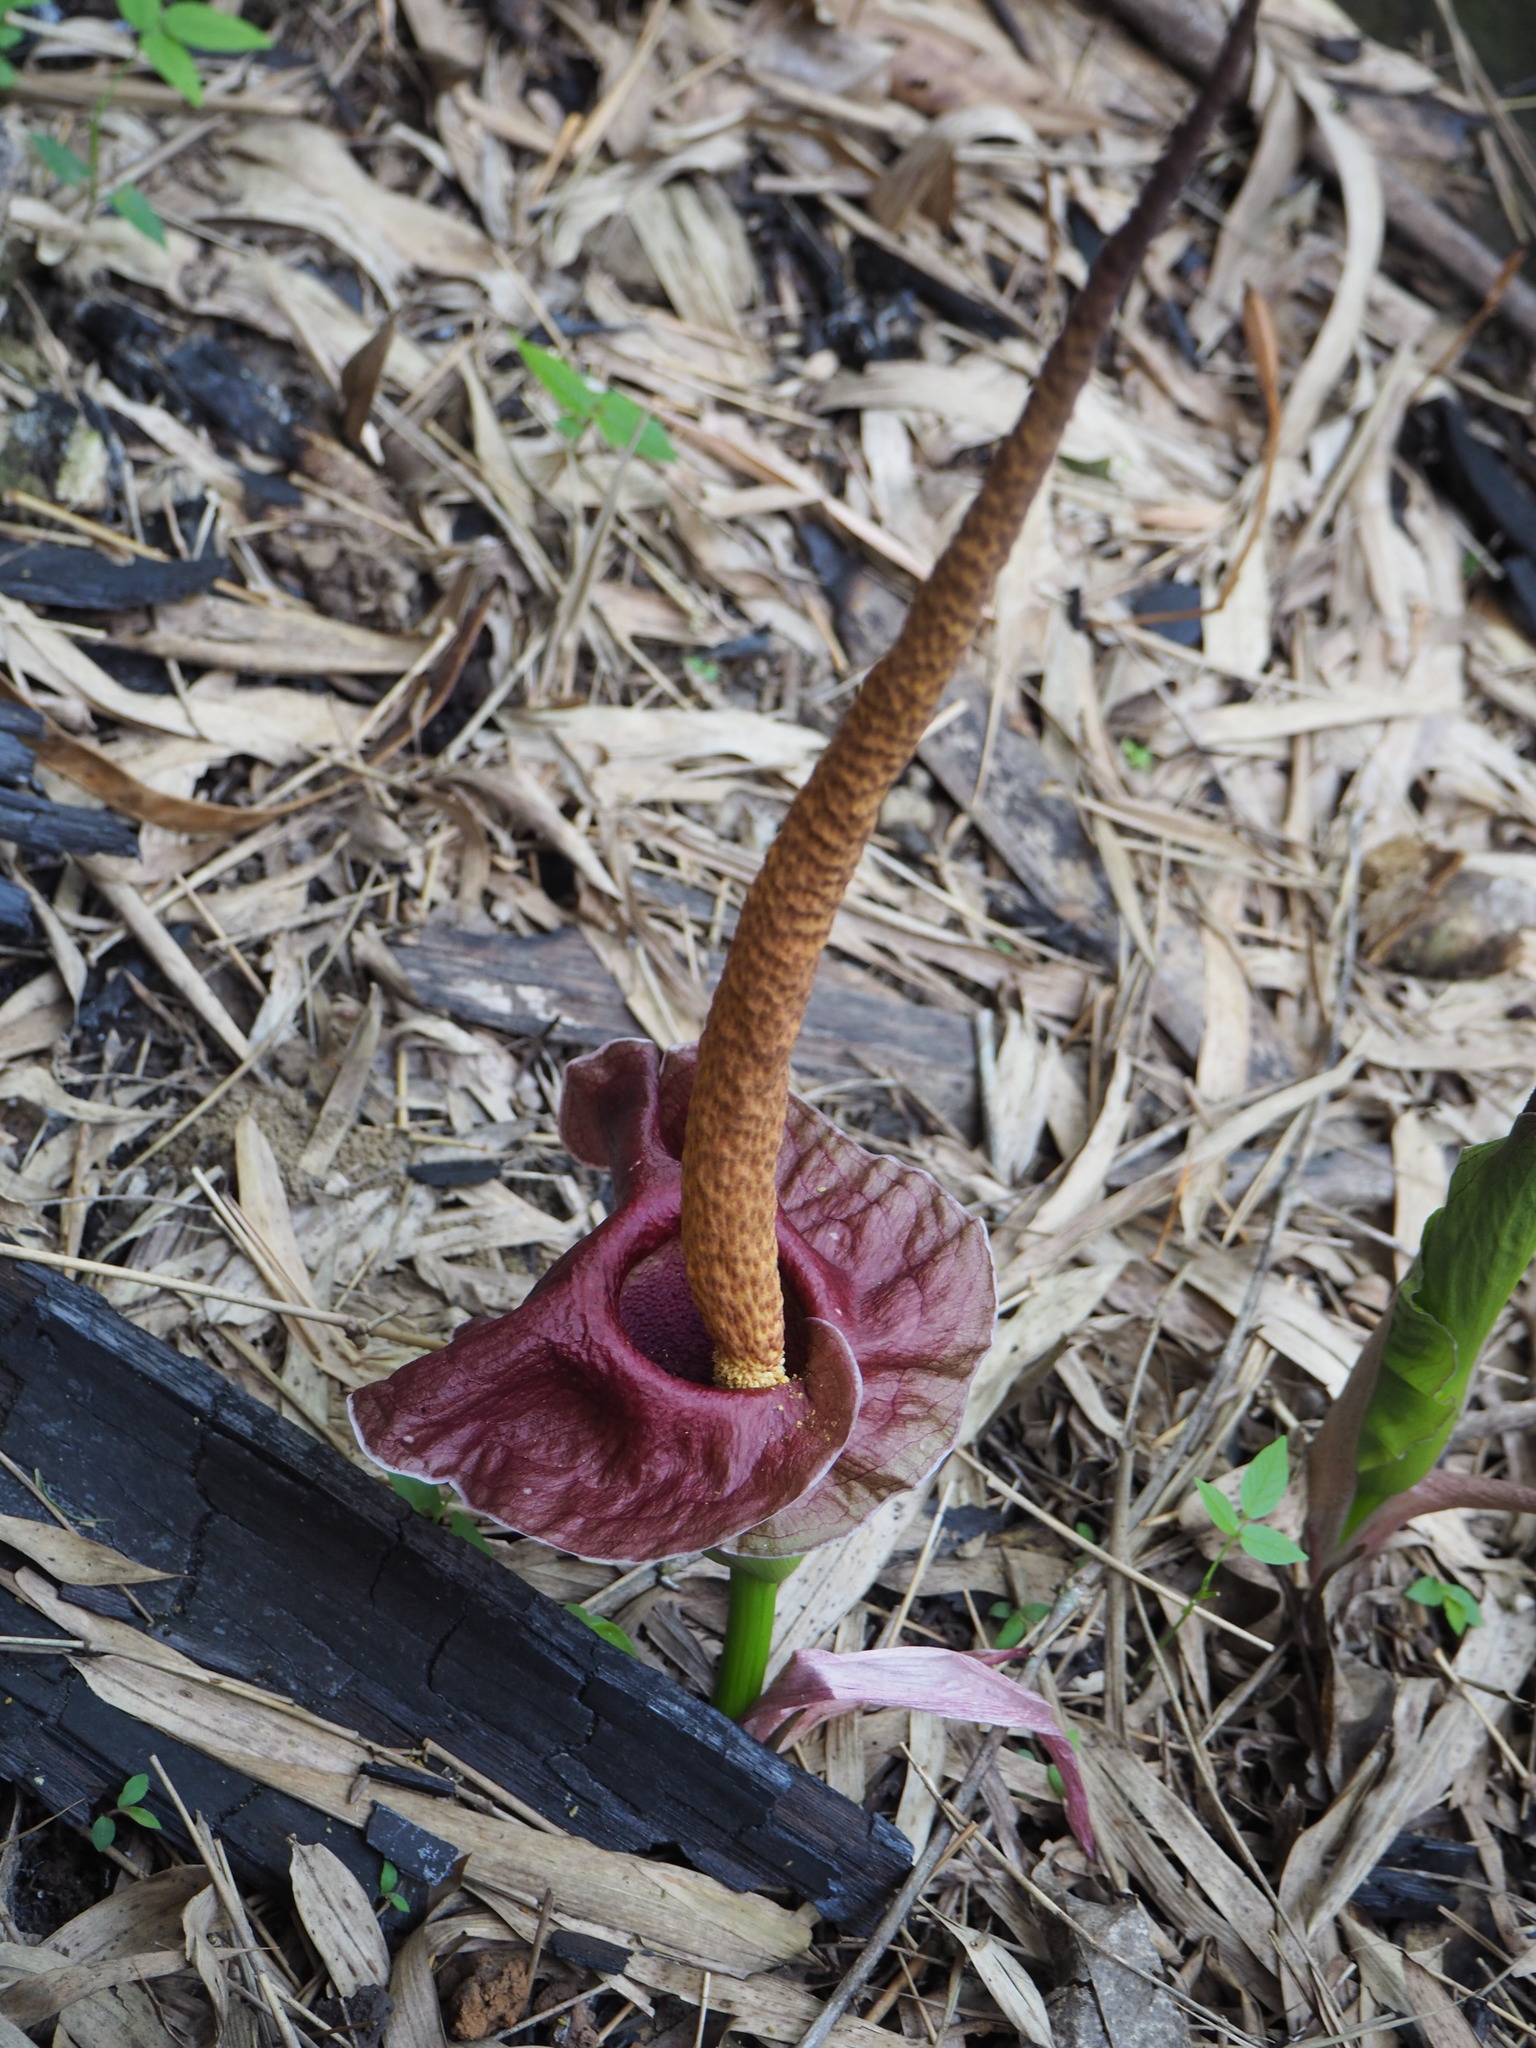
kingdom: Plantae
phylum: Tracheophyta
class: Liliopsida
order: Alismatales
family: Araceae
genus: Amorphophallus
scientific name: Amorphophallus henryi
